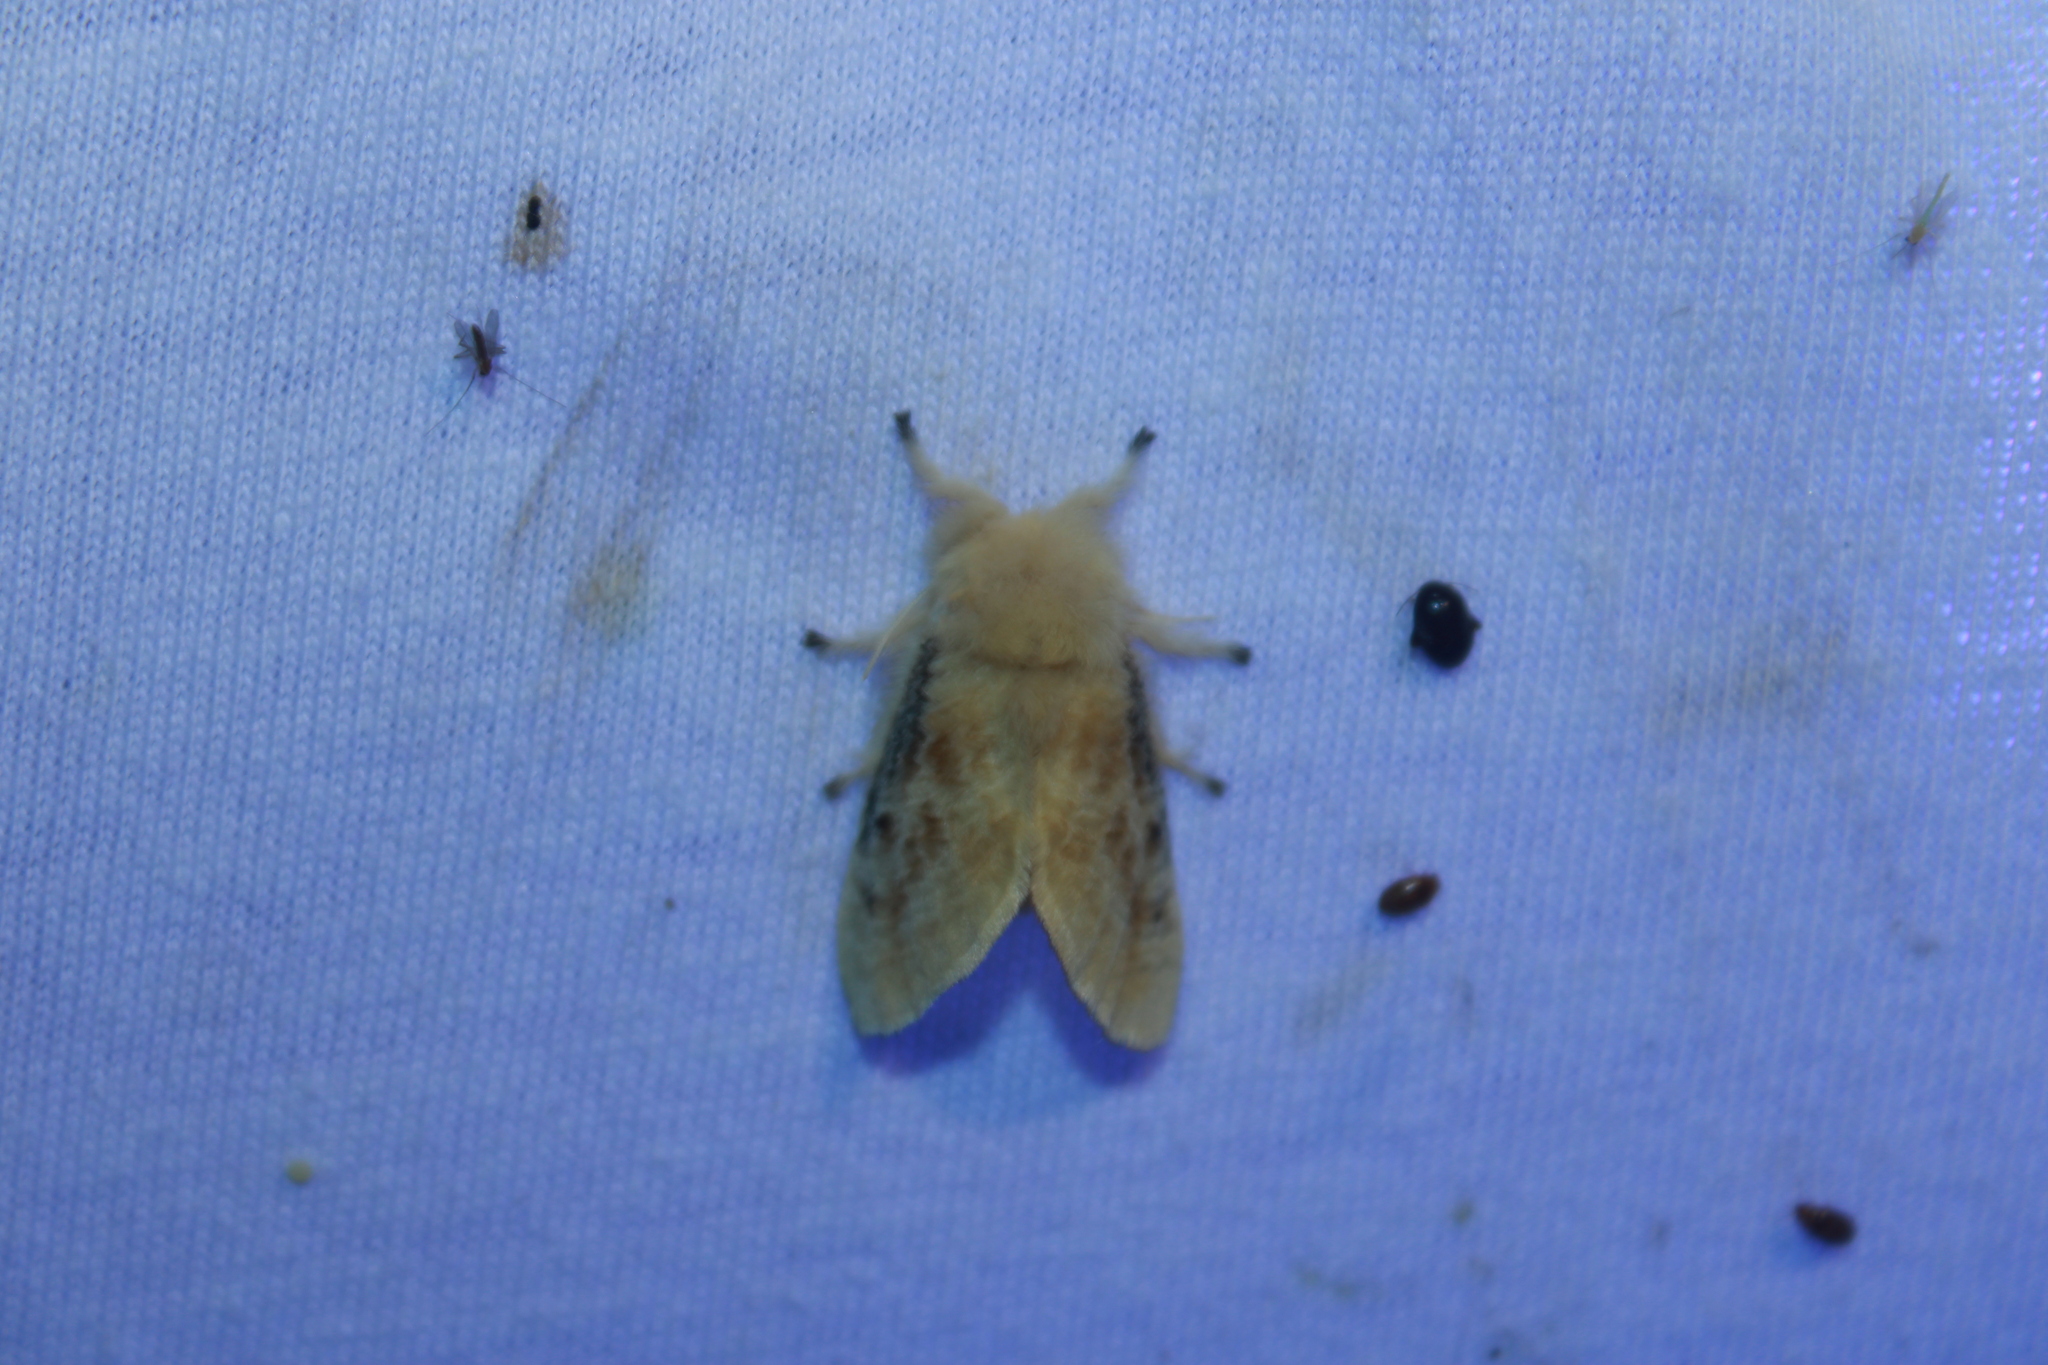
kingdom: Animalia
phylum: Arthropoda
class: Insecta
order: Lepidoptera
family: Megalopygidae
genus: Megalopyge
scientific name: Megalopyge crispata
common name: Black-waved flannel moth
